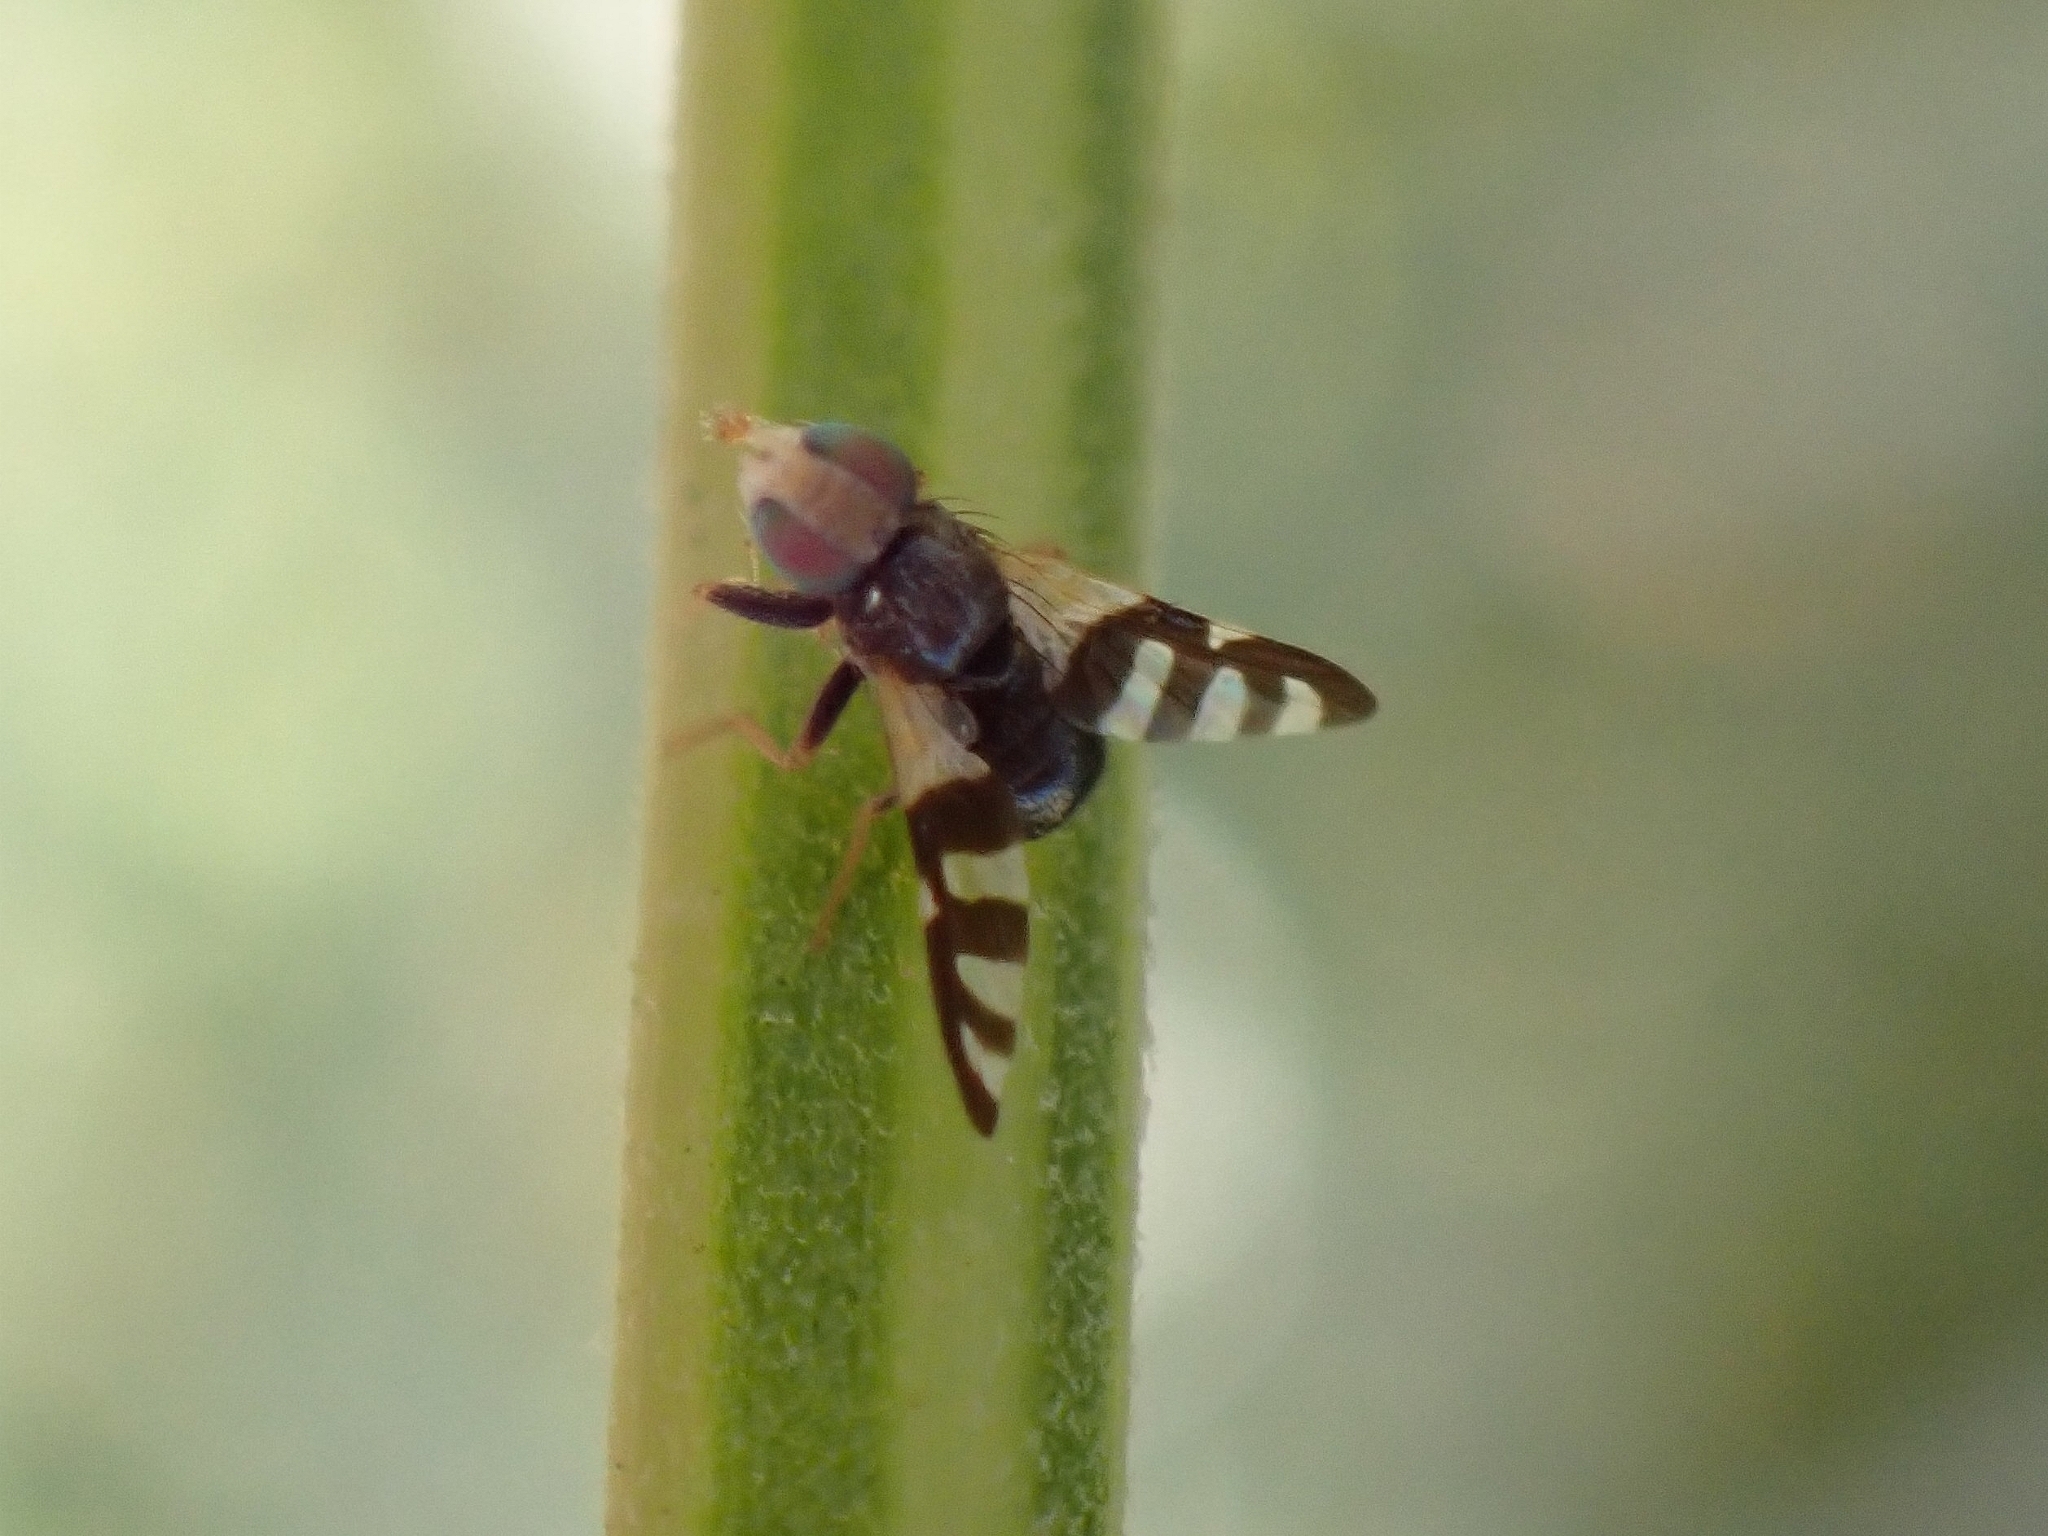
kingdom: Animalia
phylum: Arthropoda
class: Insecta
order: Diptera
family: Tephritidae
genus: Sphaeniscus
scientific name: Sphaeniscus filiolus
